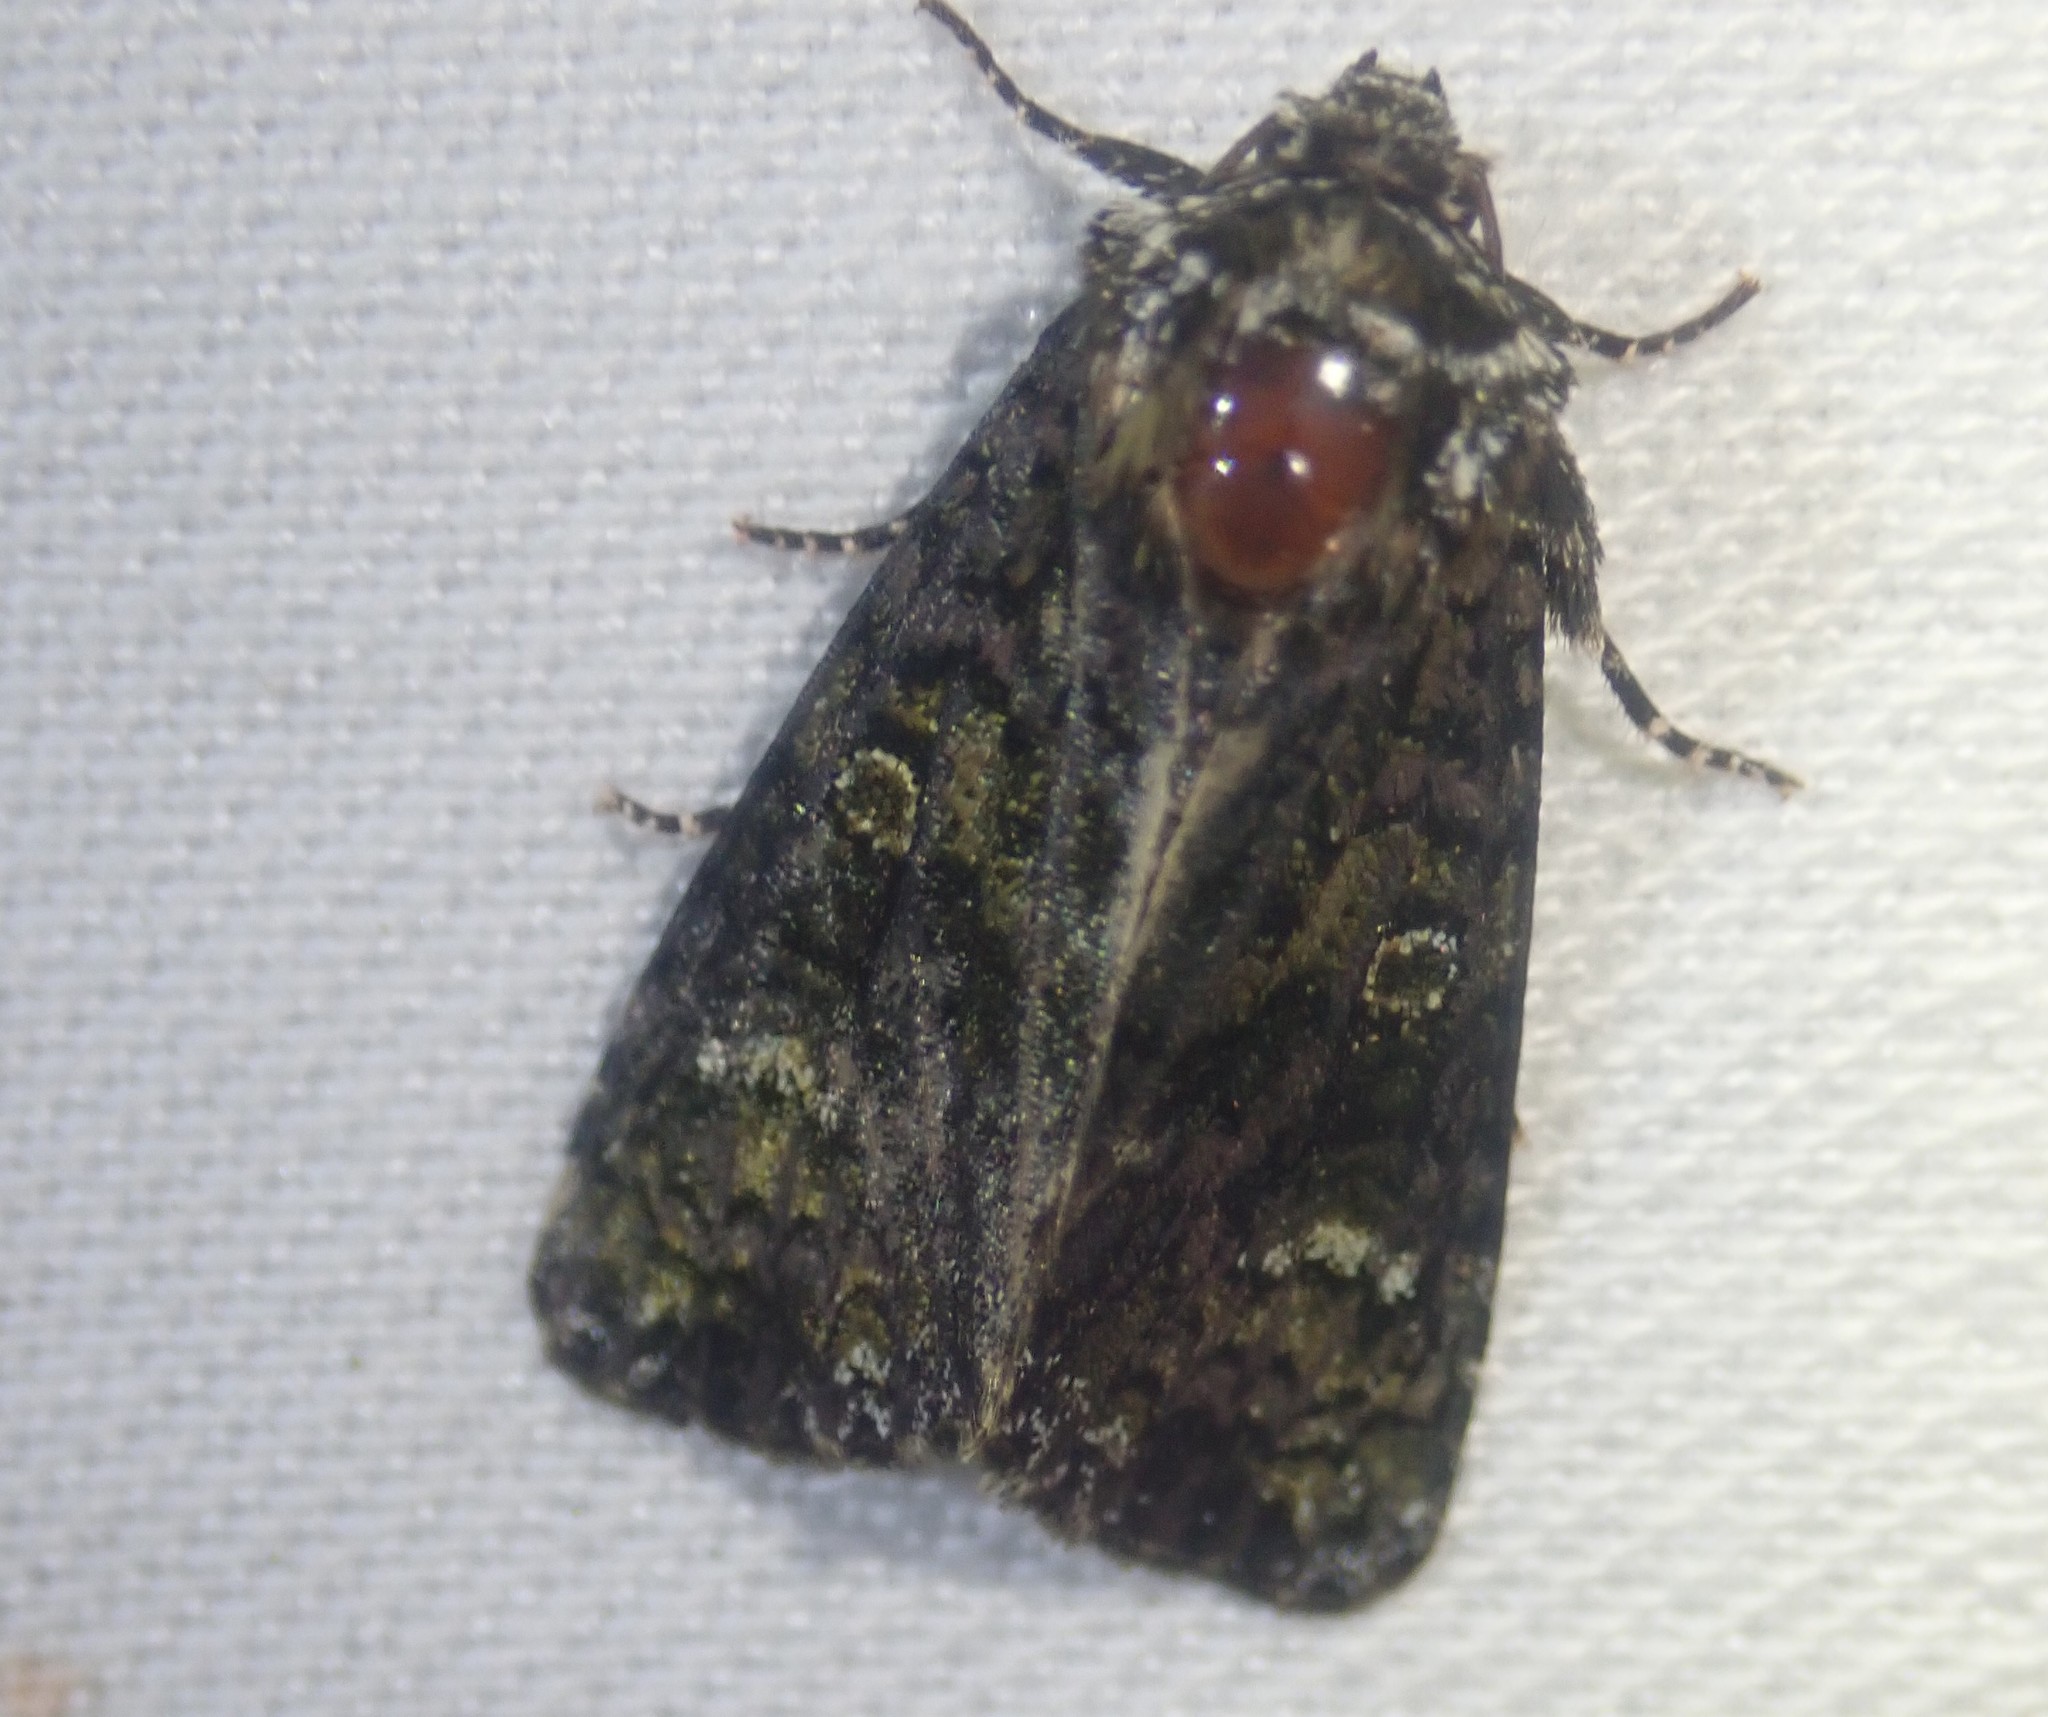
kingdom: Animalia
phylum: Arthropoda
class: Insecta
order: Lepidoptera
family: Noctuidae
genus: Craniophora
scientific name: Craniophora ligustri
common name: Coronet
